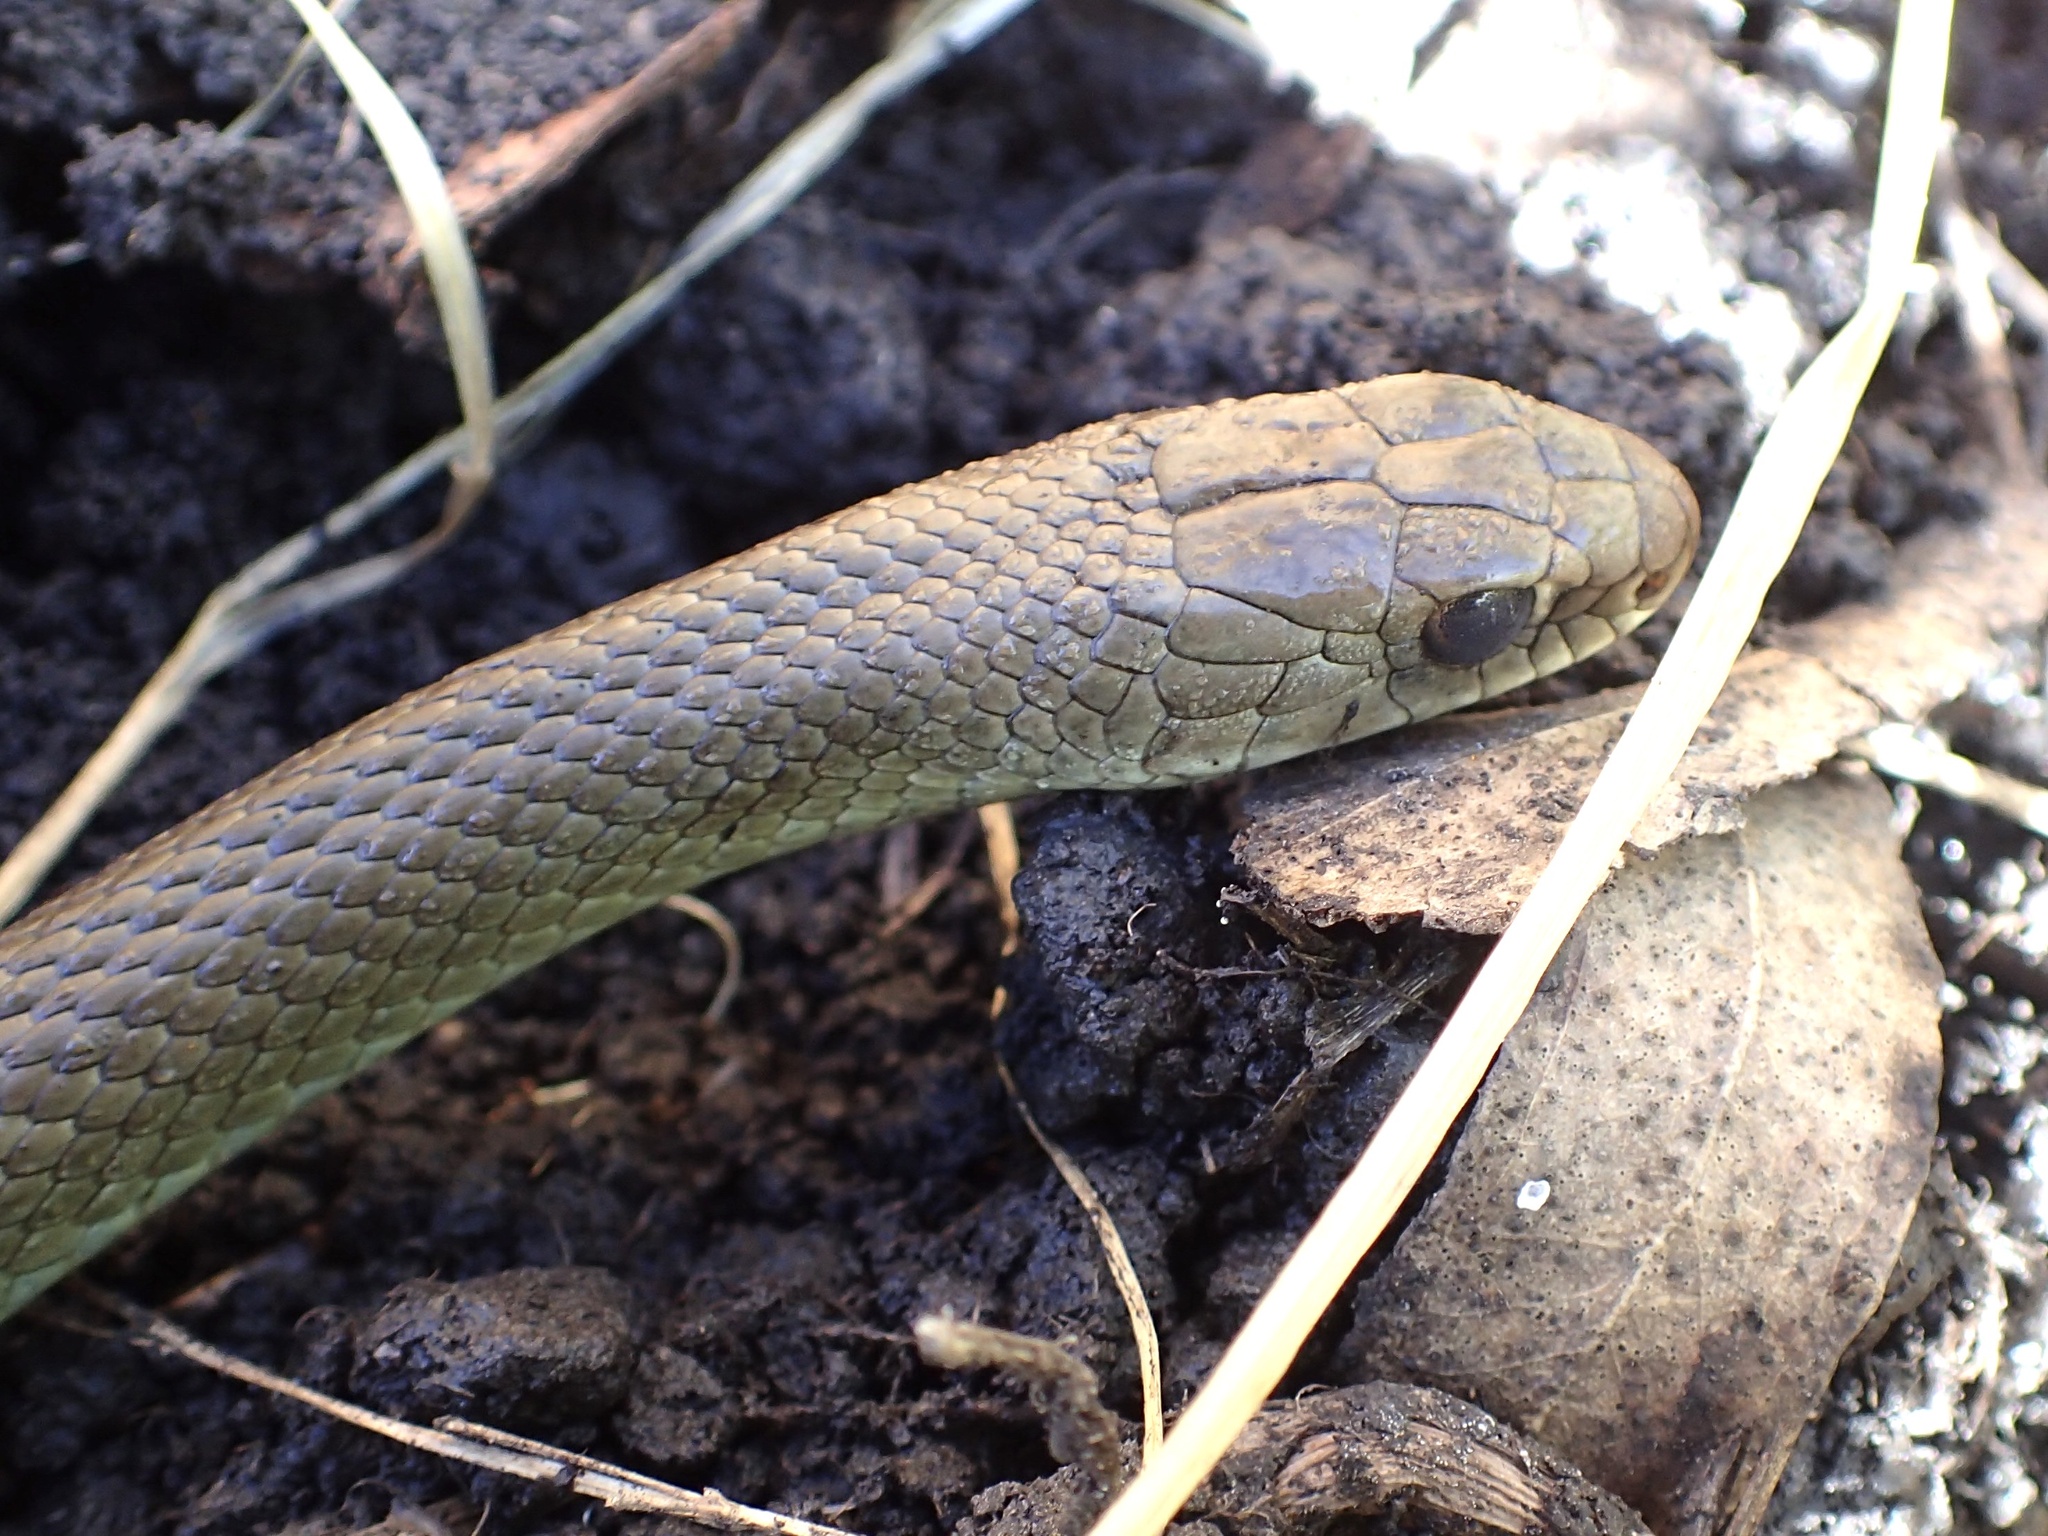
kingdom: Animalia
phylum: Chordata
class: Squamata
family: Colubridae
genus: Coluber
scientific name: Coluber constrictor
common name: Eastern racer
